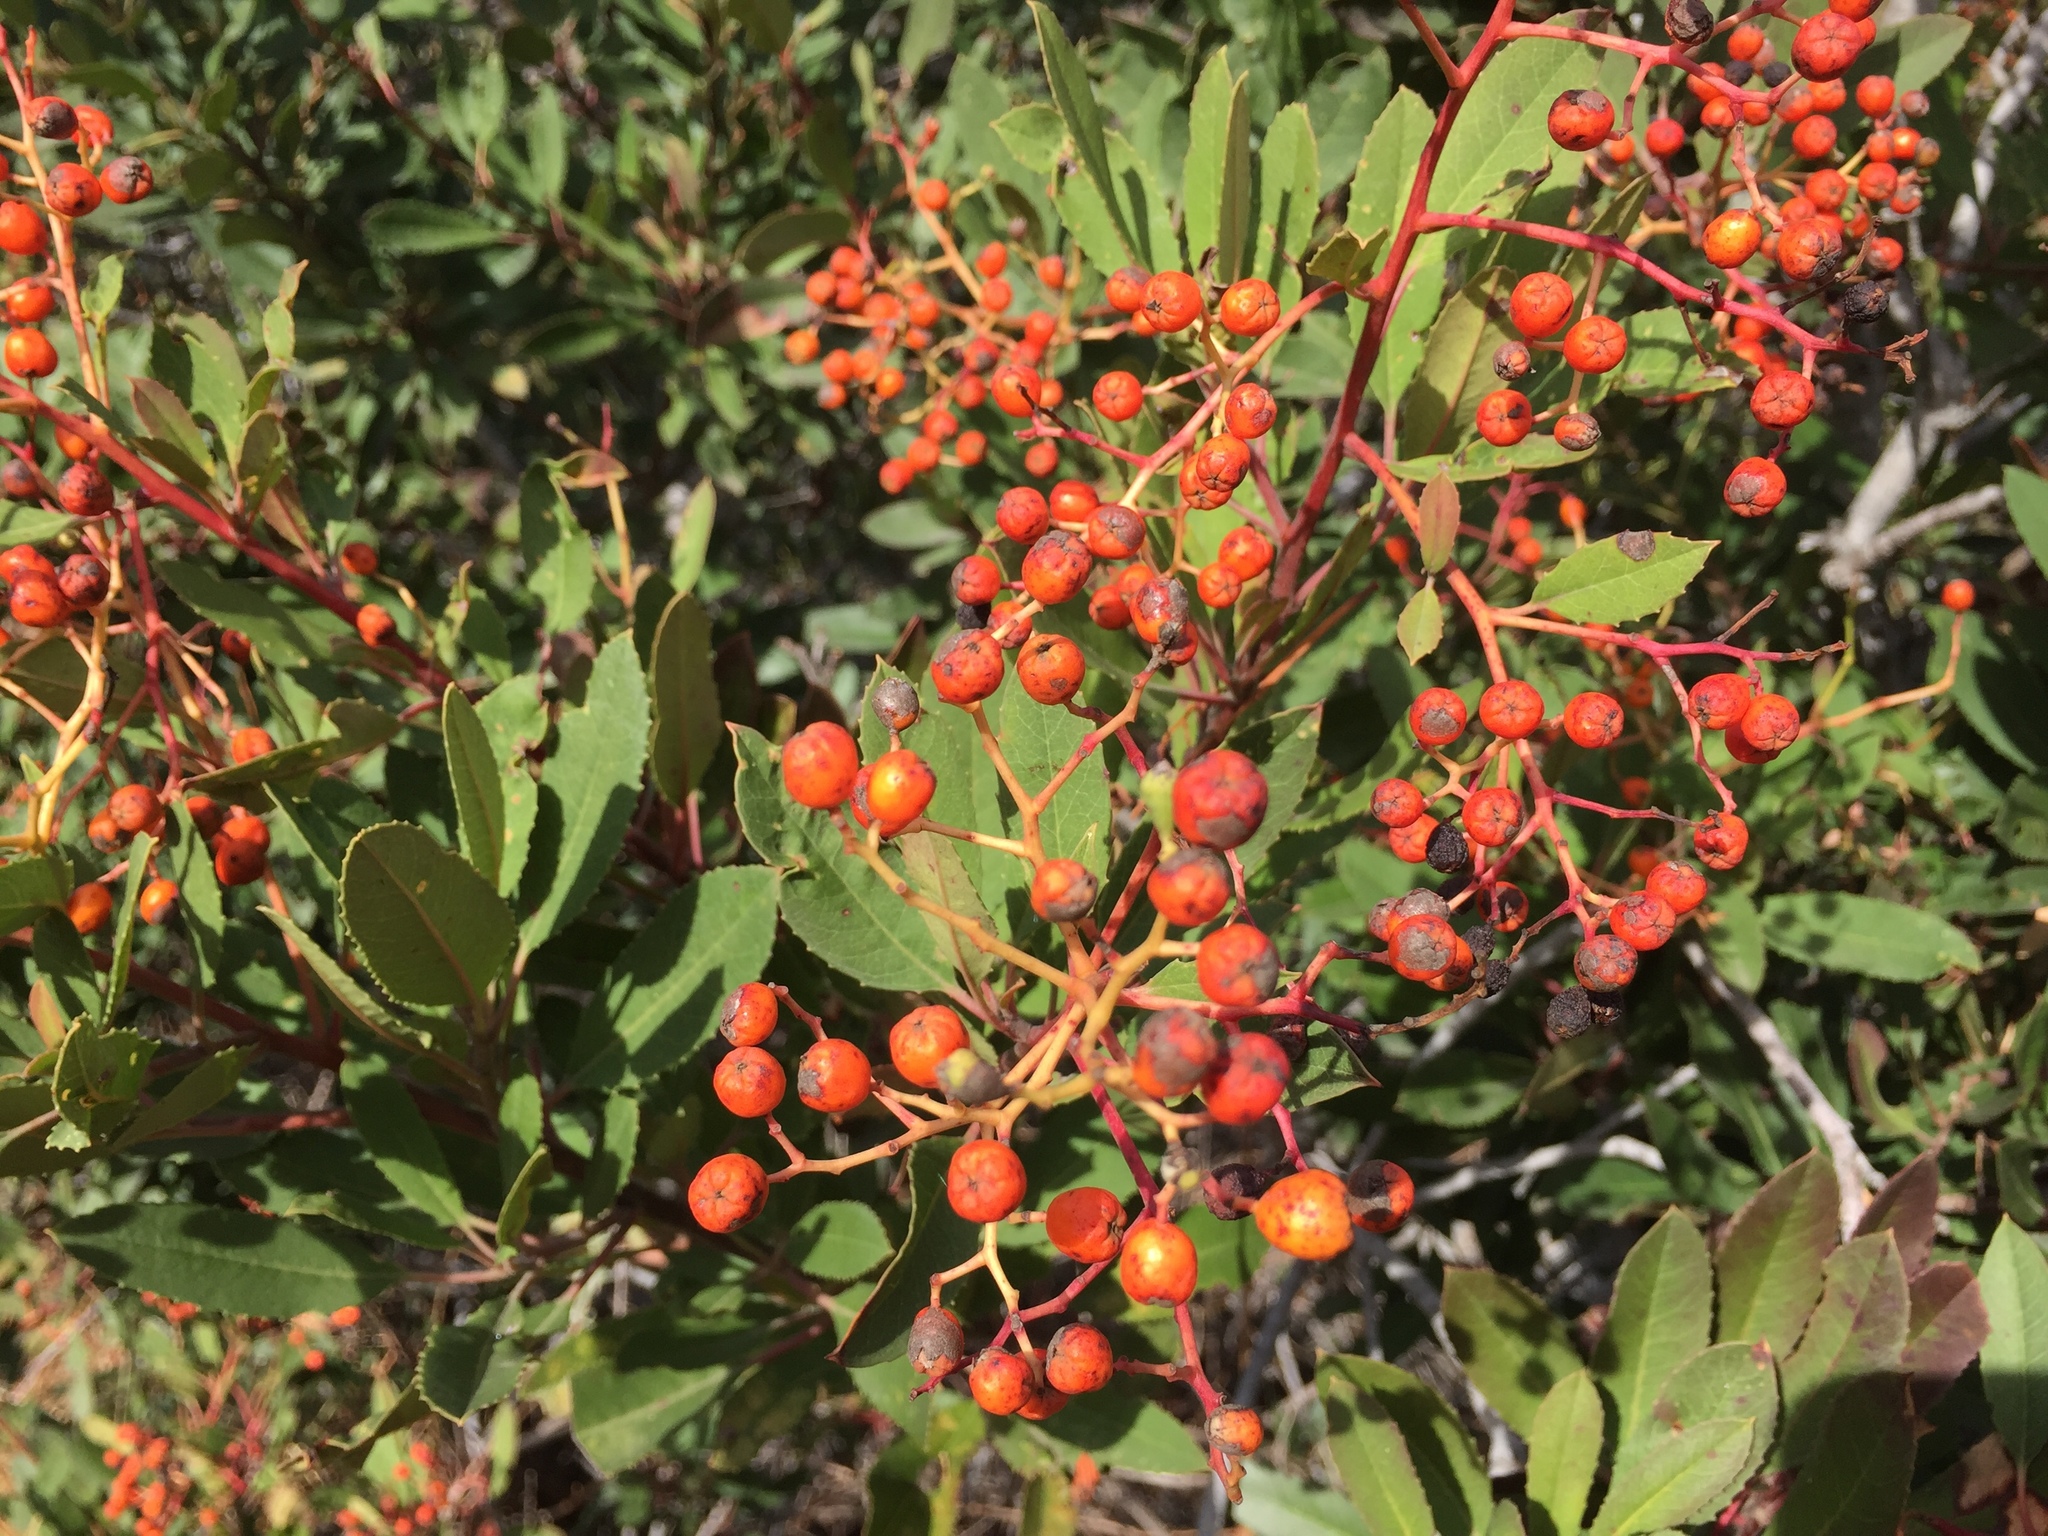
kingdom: Plantae
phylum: Tracheophyta
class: Magnoliopsida
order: Rosales
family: Rosaceae
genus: Heteromeles
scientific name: Heteromeles arbutifolia
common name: California-holly
